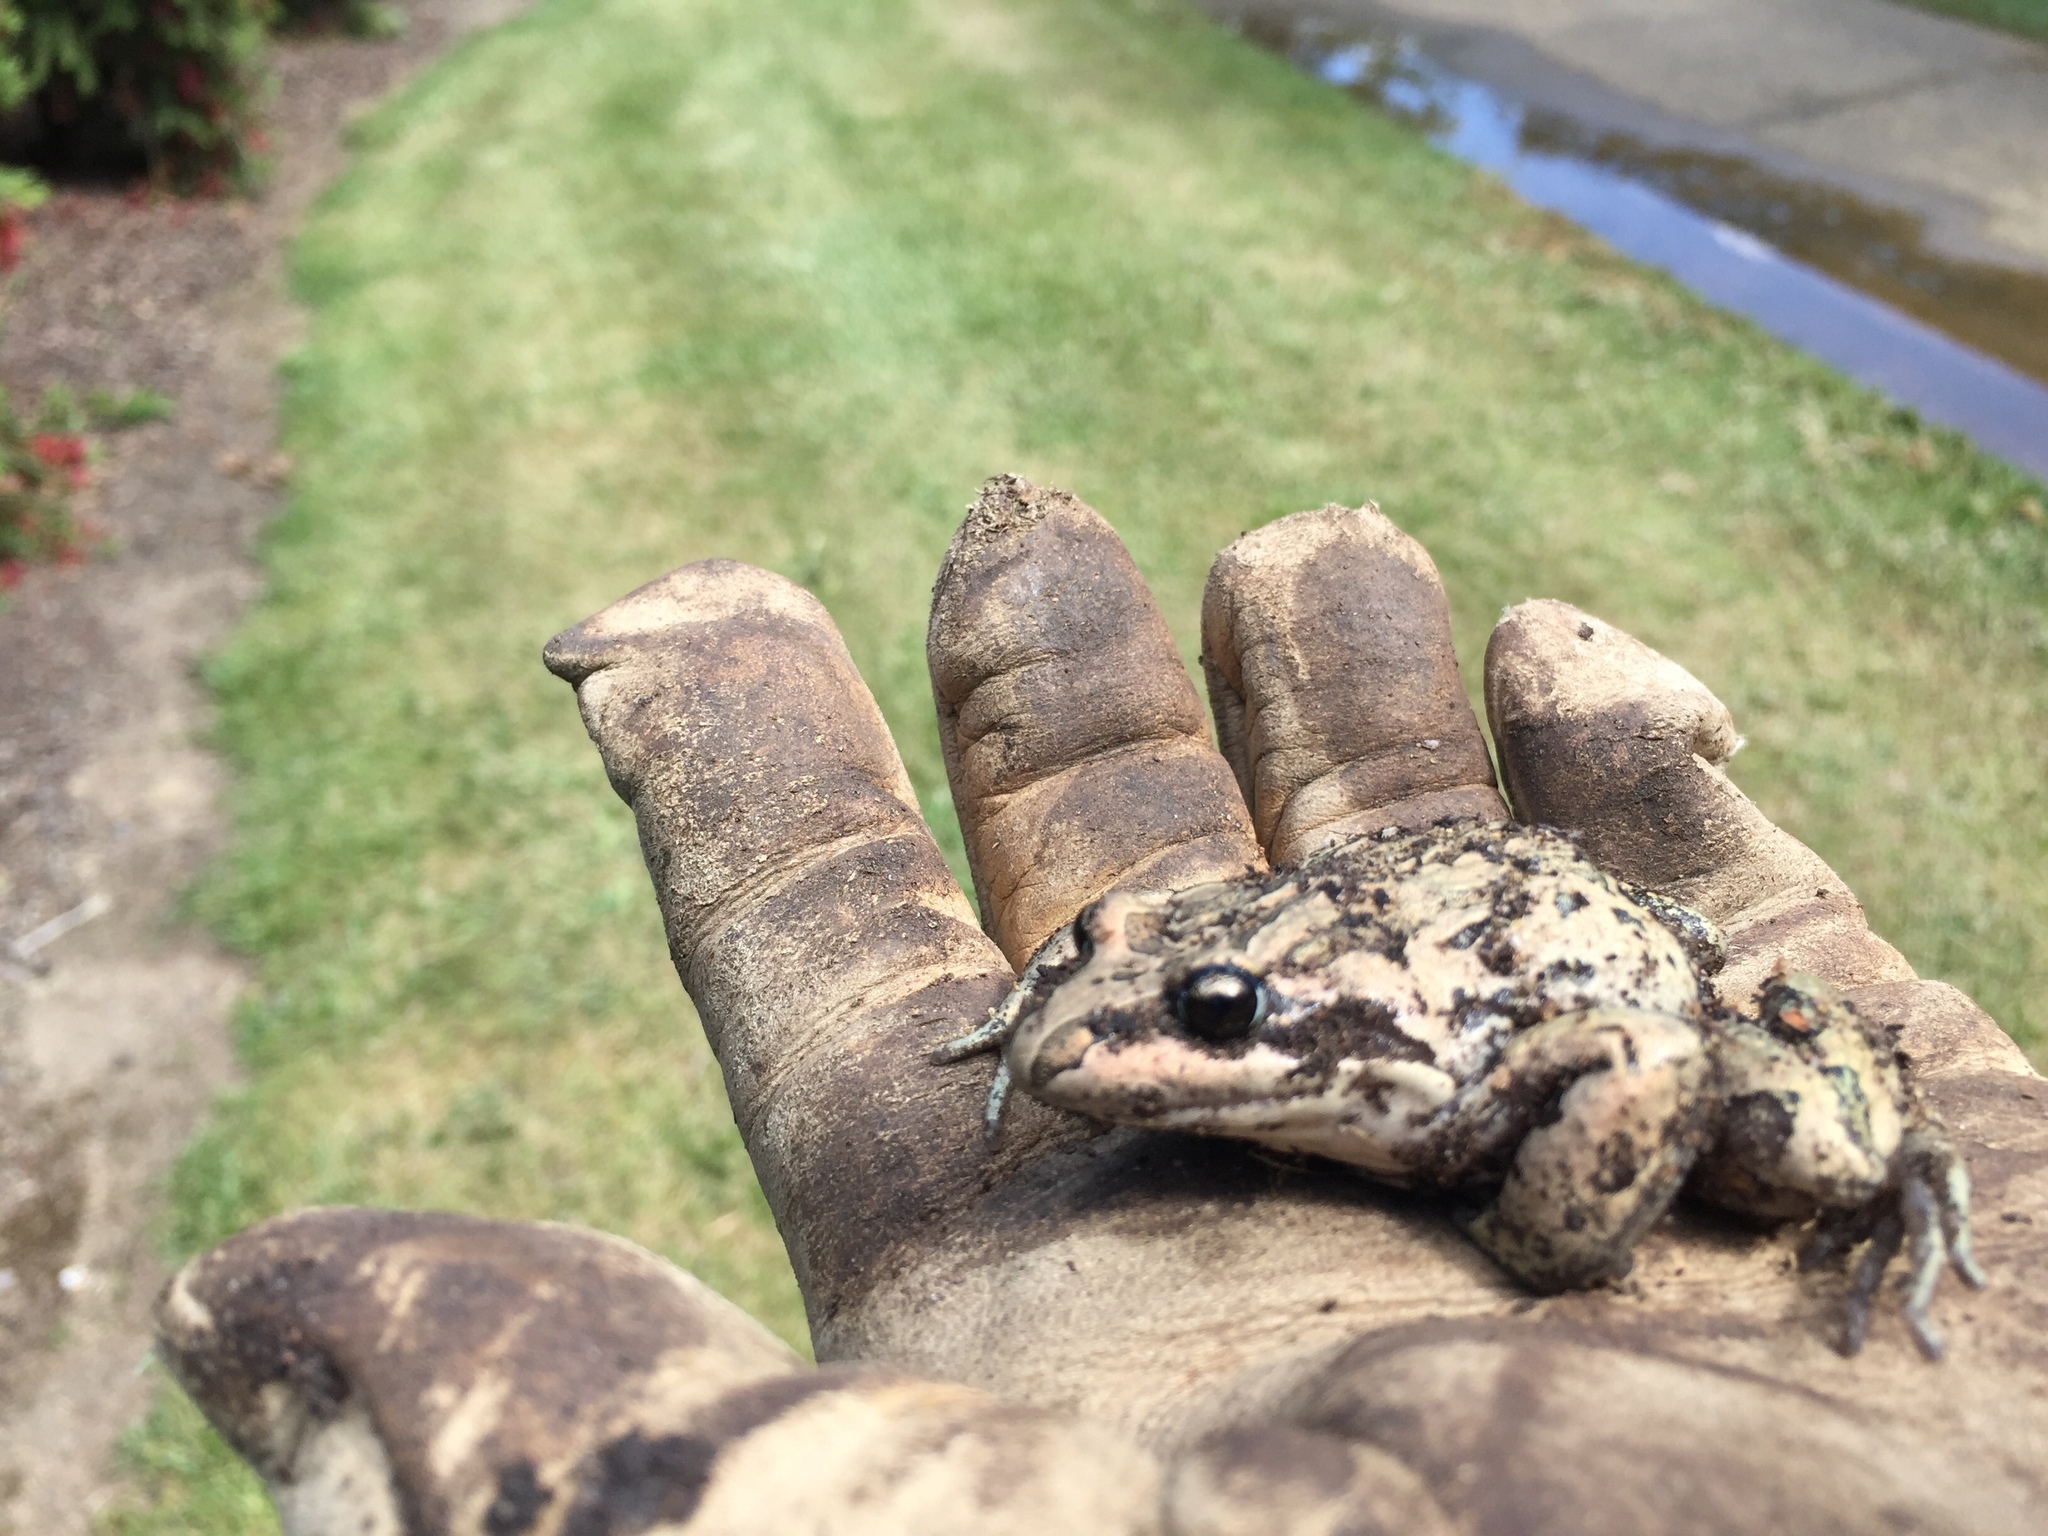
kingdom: Animalia
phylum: Chordata
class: Amphibia
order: Anura
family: Limnodynastidae
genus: Limnodynastes
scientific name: Limnodynastes peronii
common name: Brown frog
